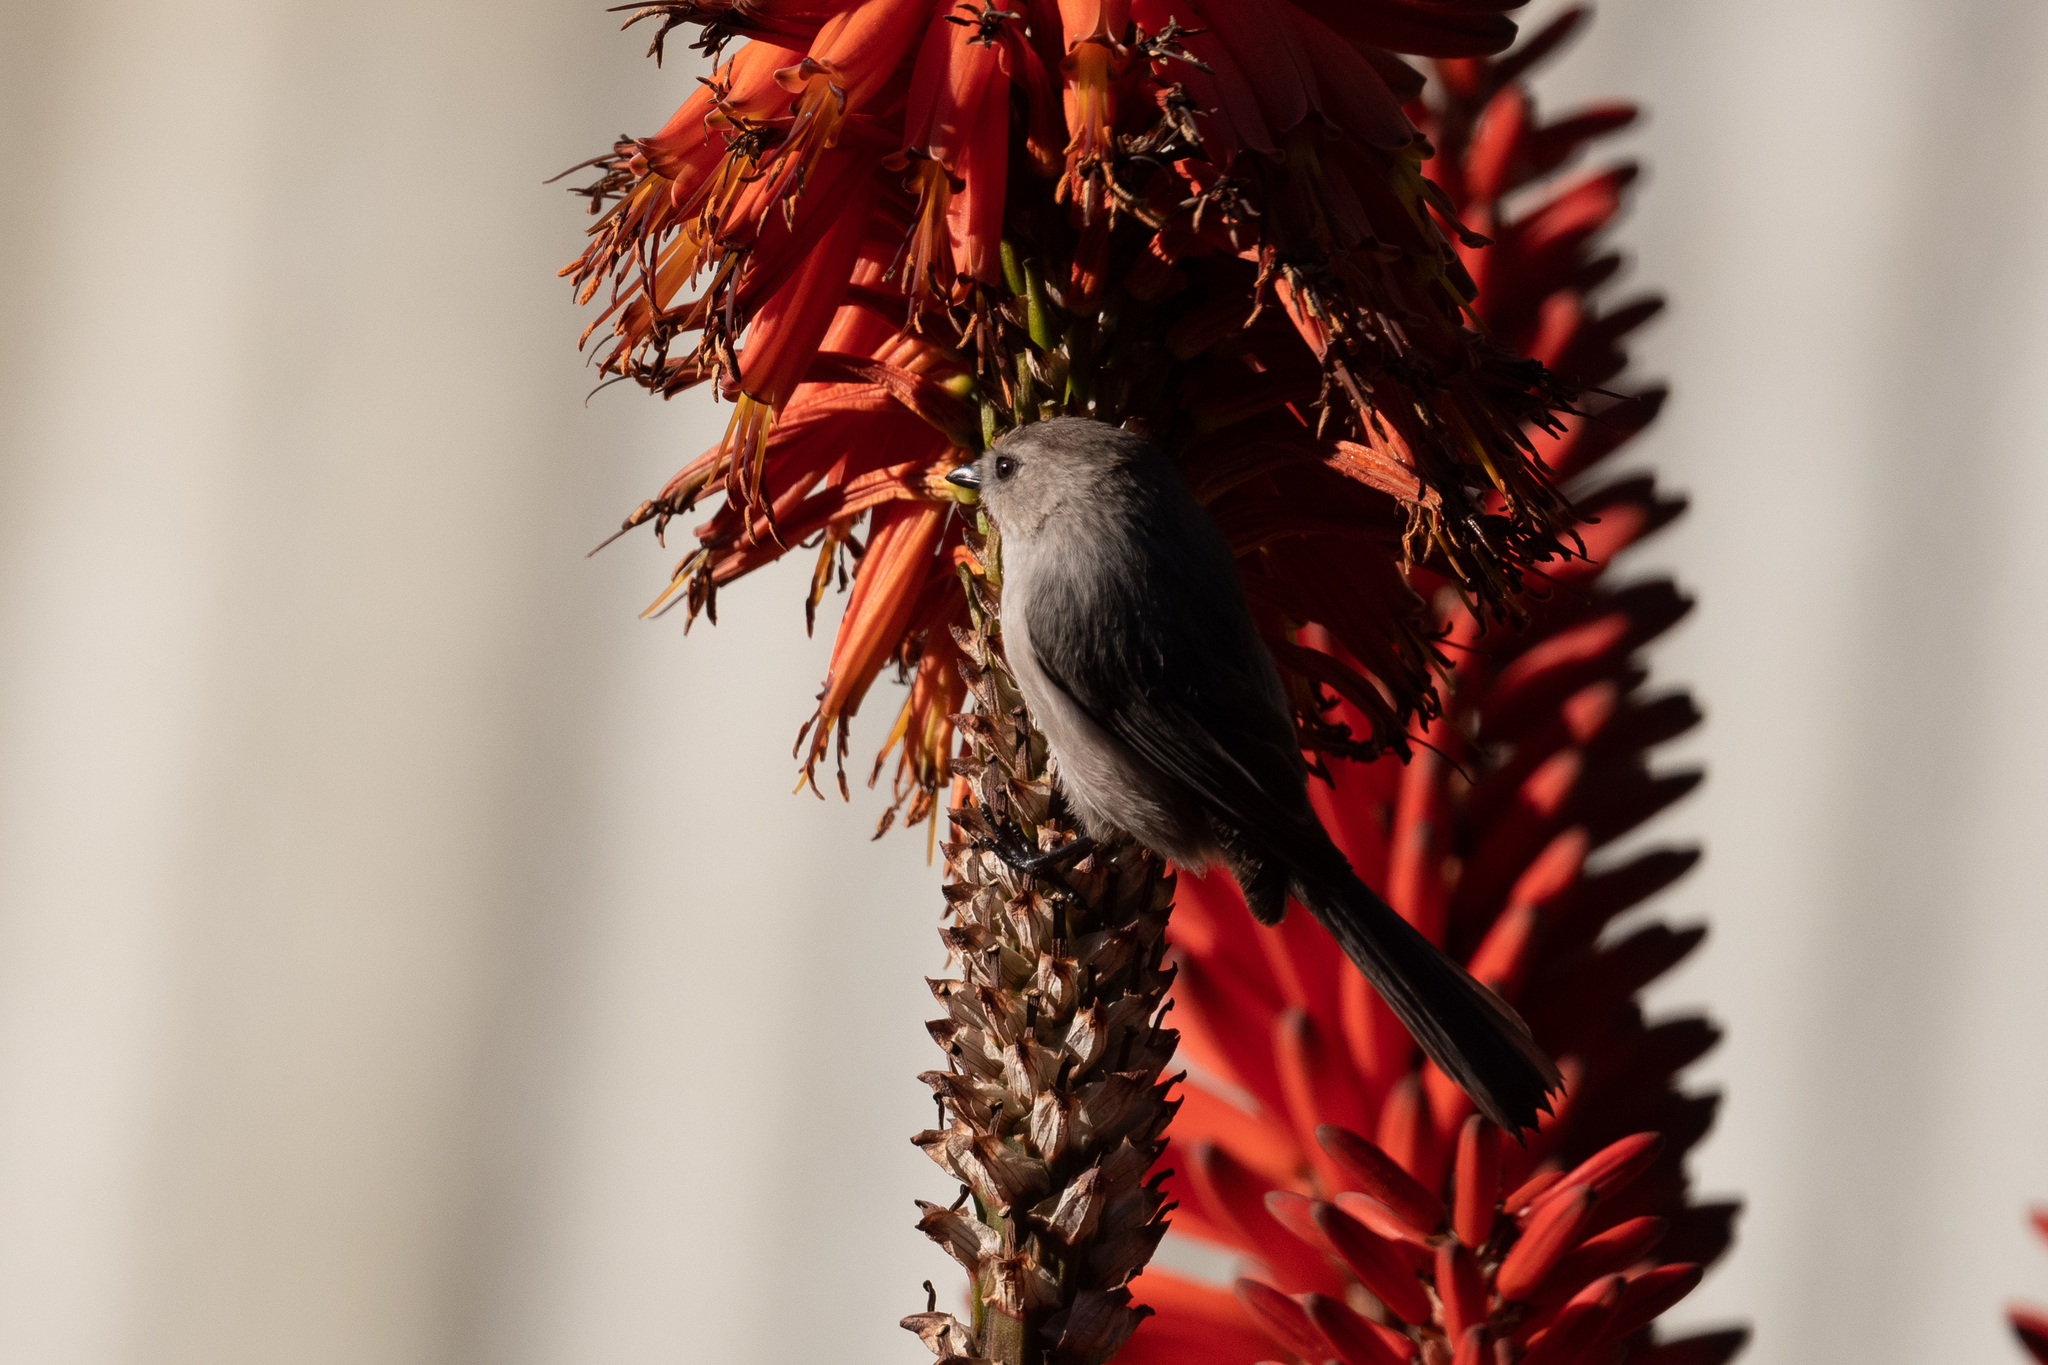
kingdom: Animalia
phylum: Chordata
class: Aves
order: Passeriformes
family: Aegithalidae
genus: Psaltriparus
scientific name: Psaltriparus minimus
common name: American bushtit
